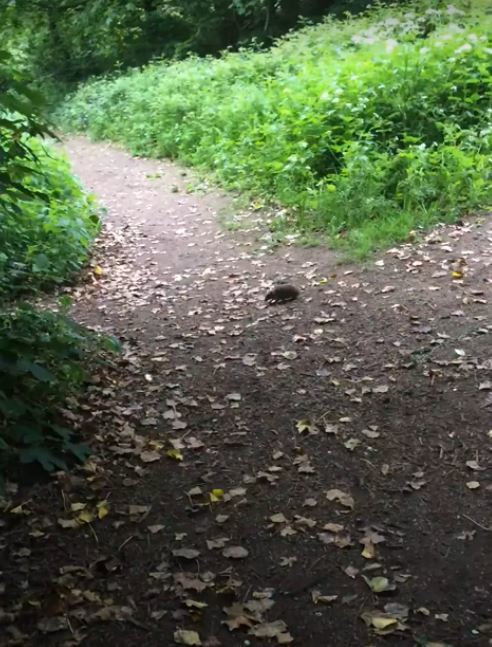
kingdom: Animalia
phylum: Chordata
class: Mammalia
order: Erinaceomorpha
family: Erinaceidae
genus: Erinaceus
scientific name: Erinaceus europaeus
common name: West european hedgehog
